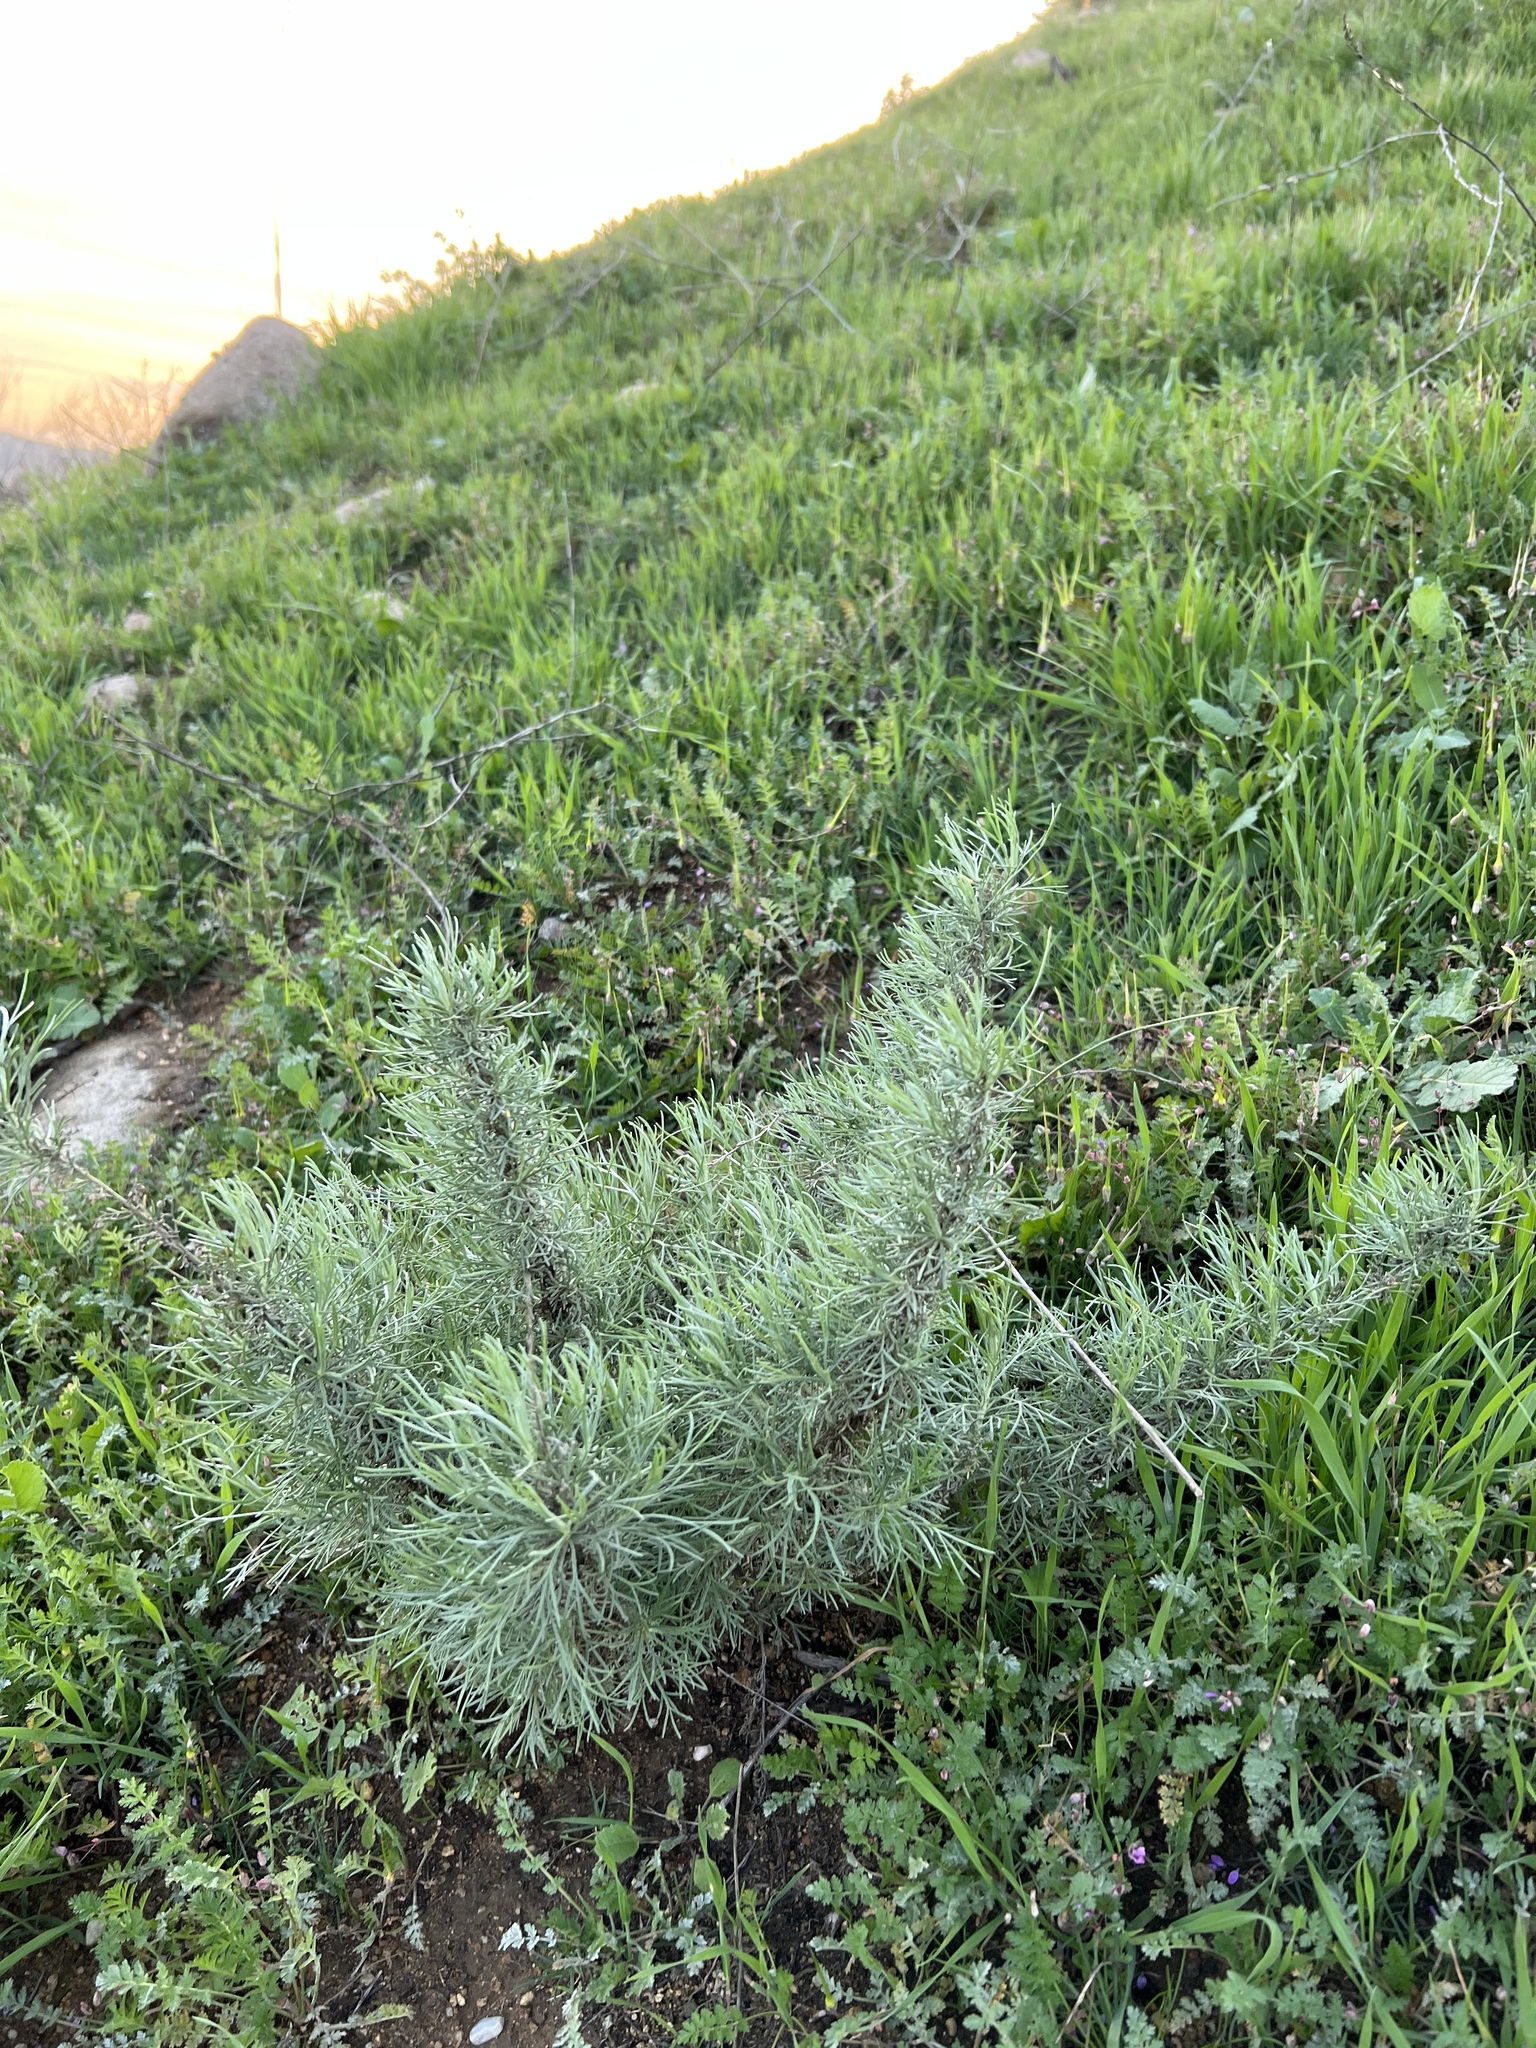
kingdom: Plantae
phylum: Tracheophyta
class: Magnoliopsida
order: Asterales
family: Asteraceae
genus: Artemisia
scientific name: Artemisia californica
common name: California sagebrush
